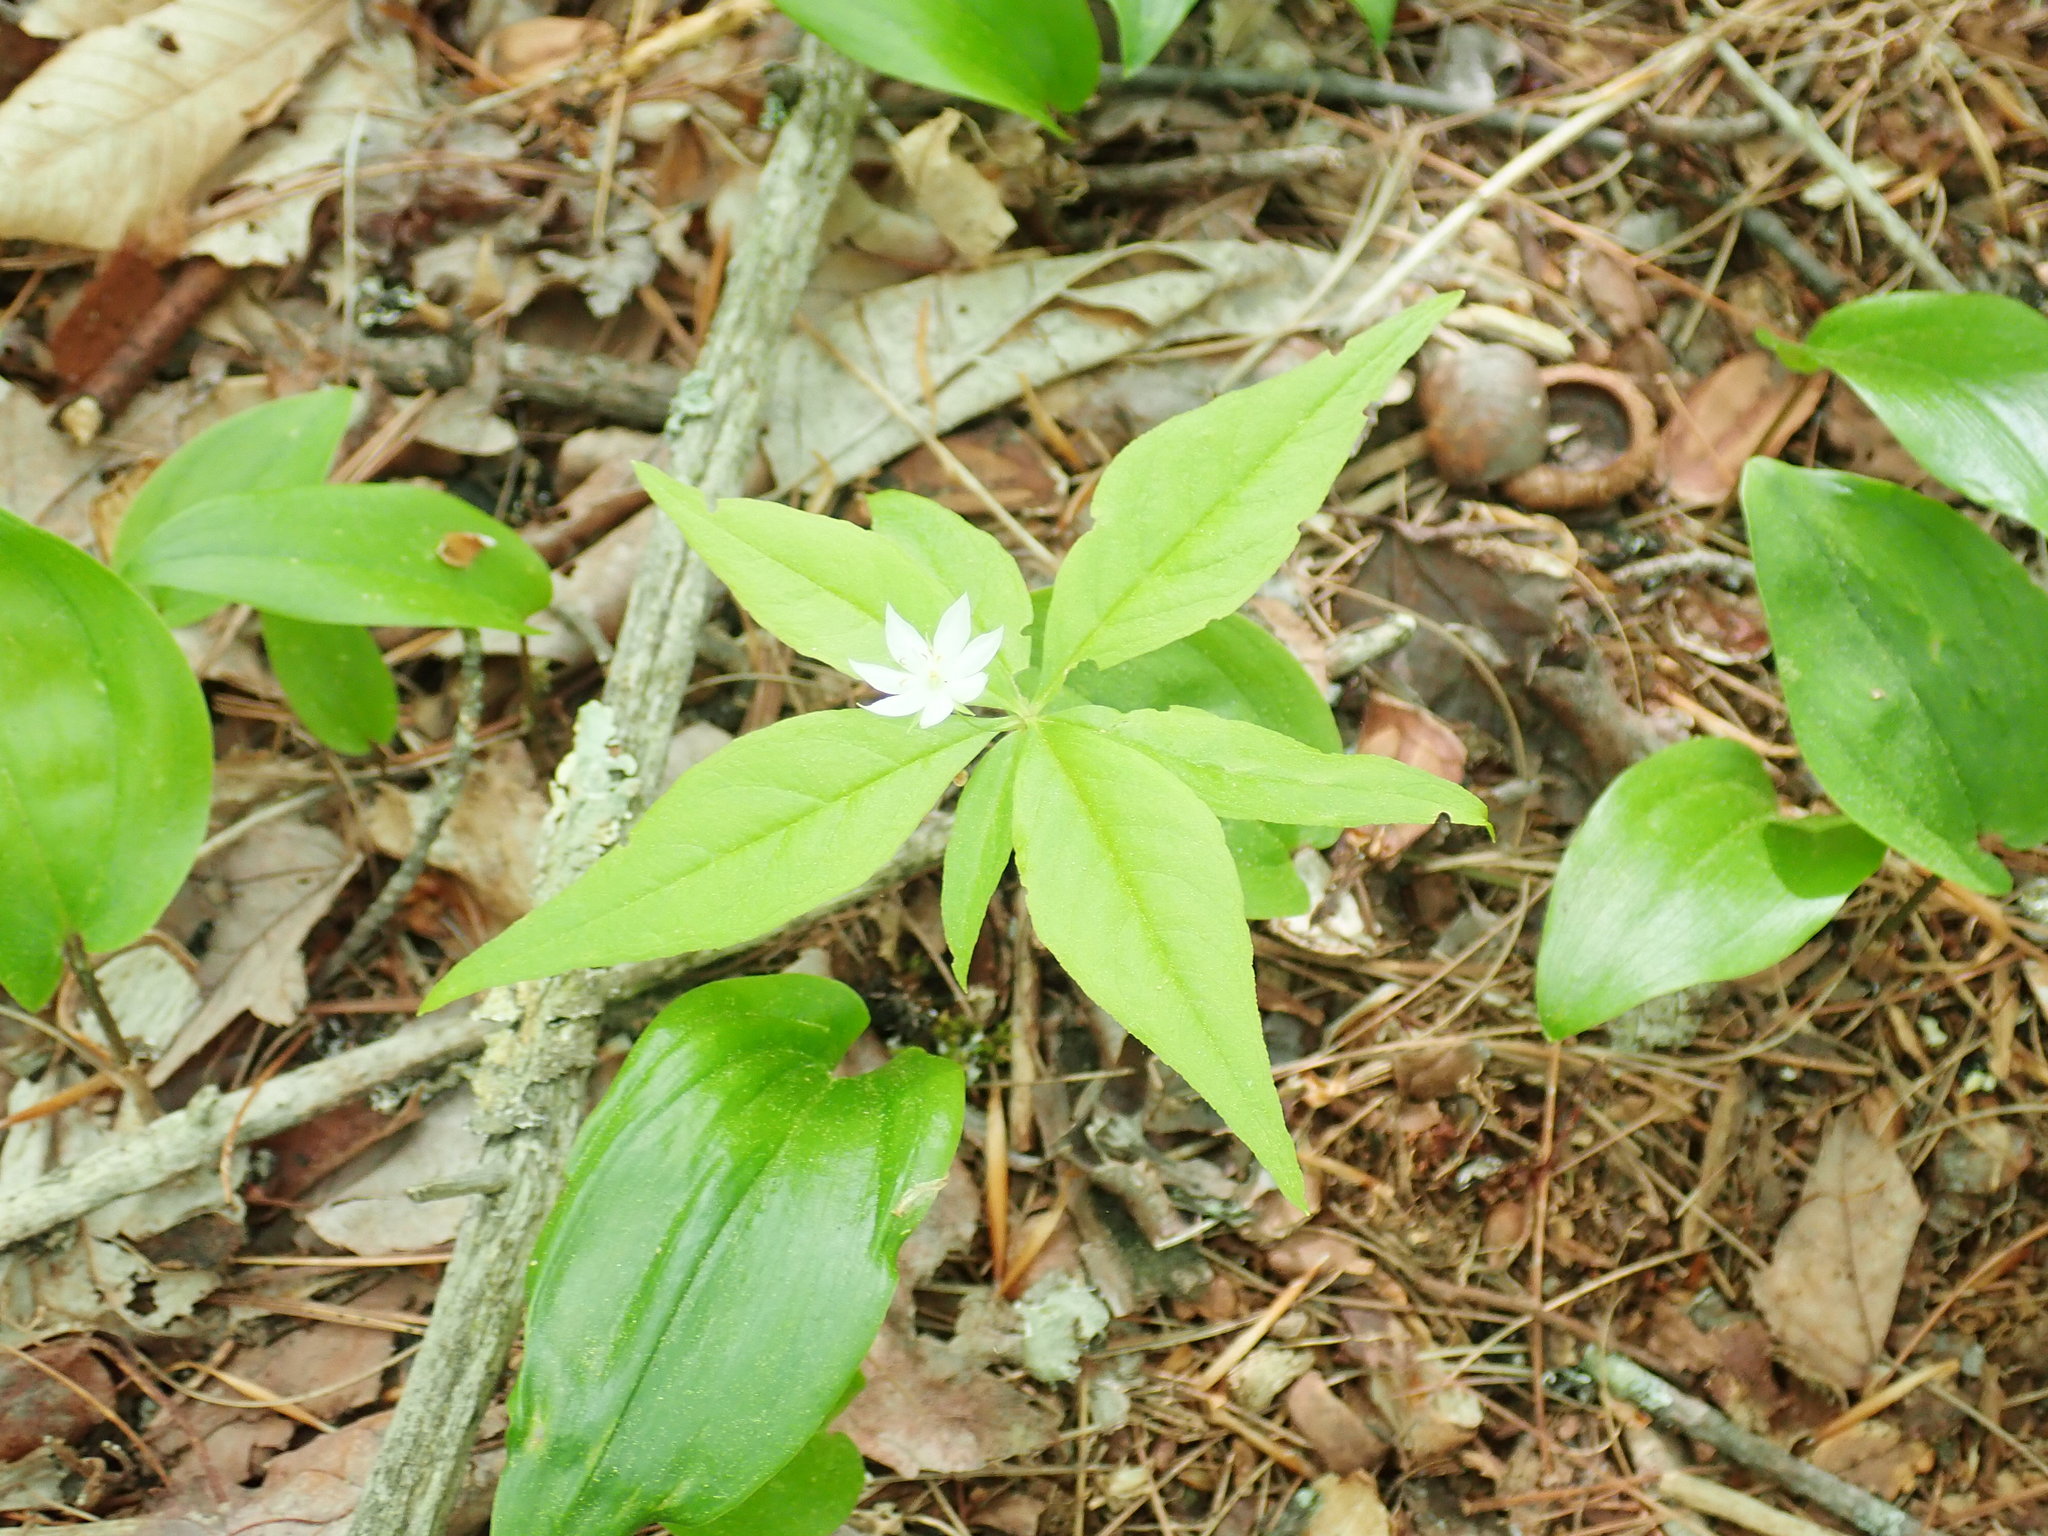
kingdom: Plantae
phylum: Tracheophyta
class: Magnoliopsida
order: Ericales
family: Primulaceae
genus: Lysimachia
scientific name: Lysimachia borealis
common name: American starflower
